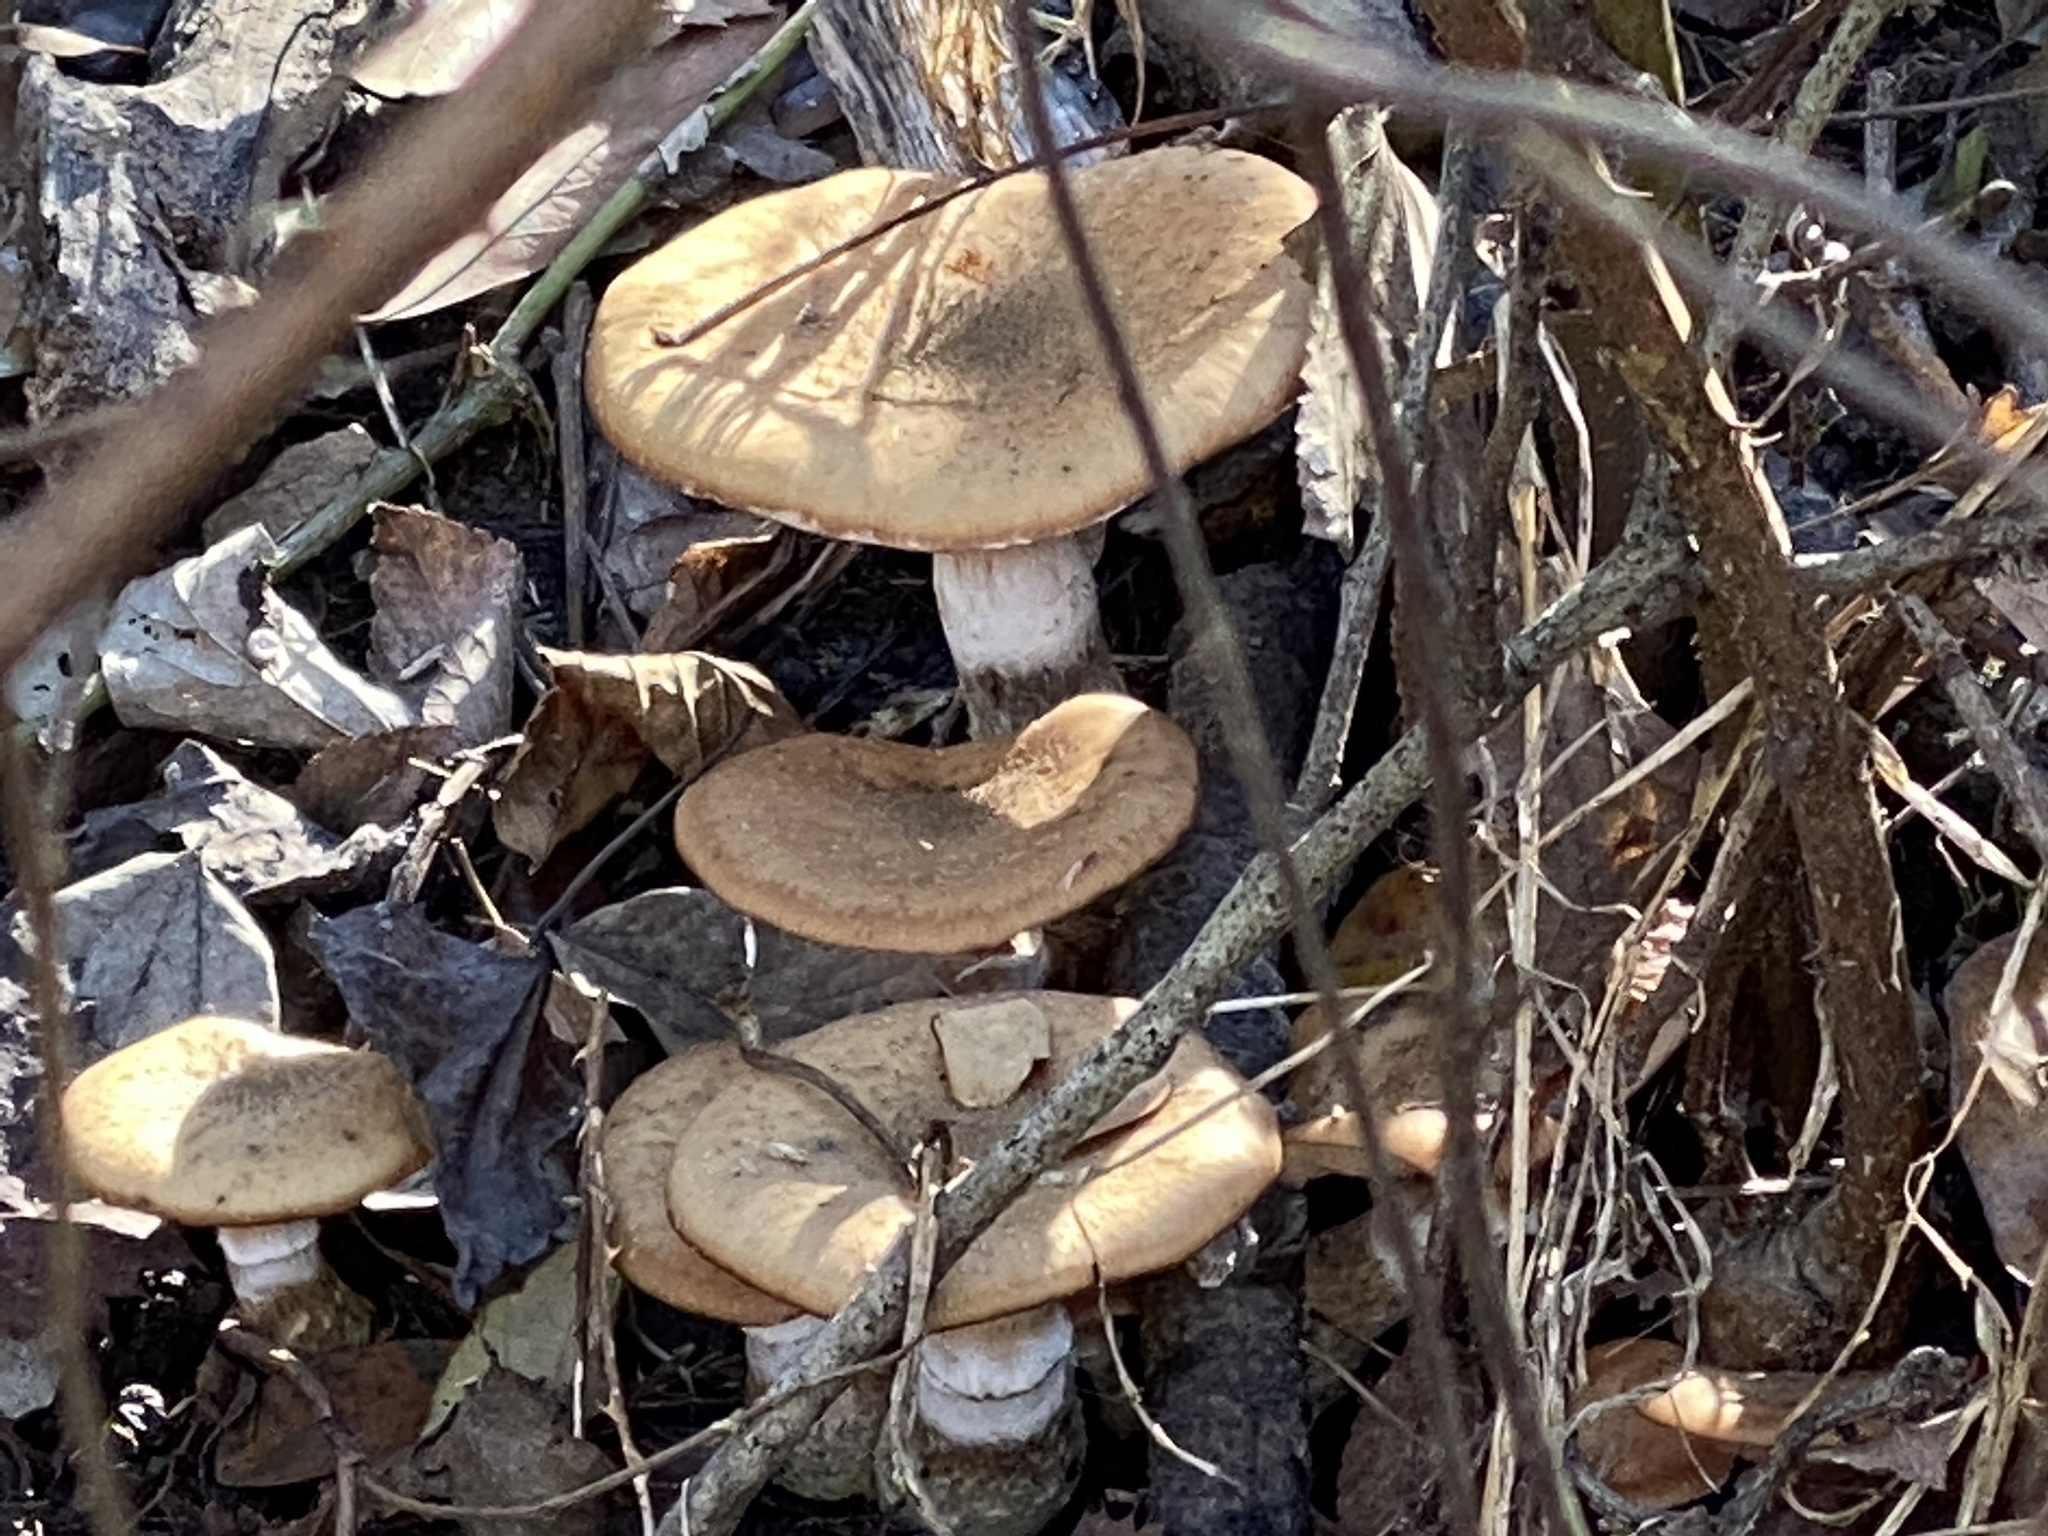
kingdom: Fungi
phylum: Basidiomycota
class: Agaricomycetes
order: Agaricales
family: Physalacriaceae
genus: Armillaria
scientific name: Armillaria gallica
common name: Bulbous honey fungus
